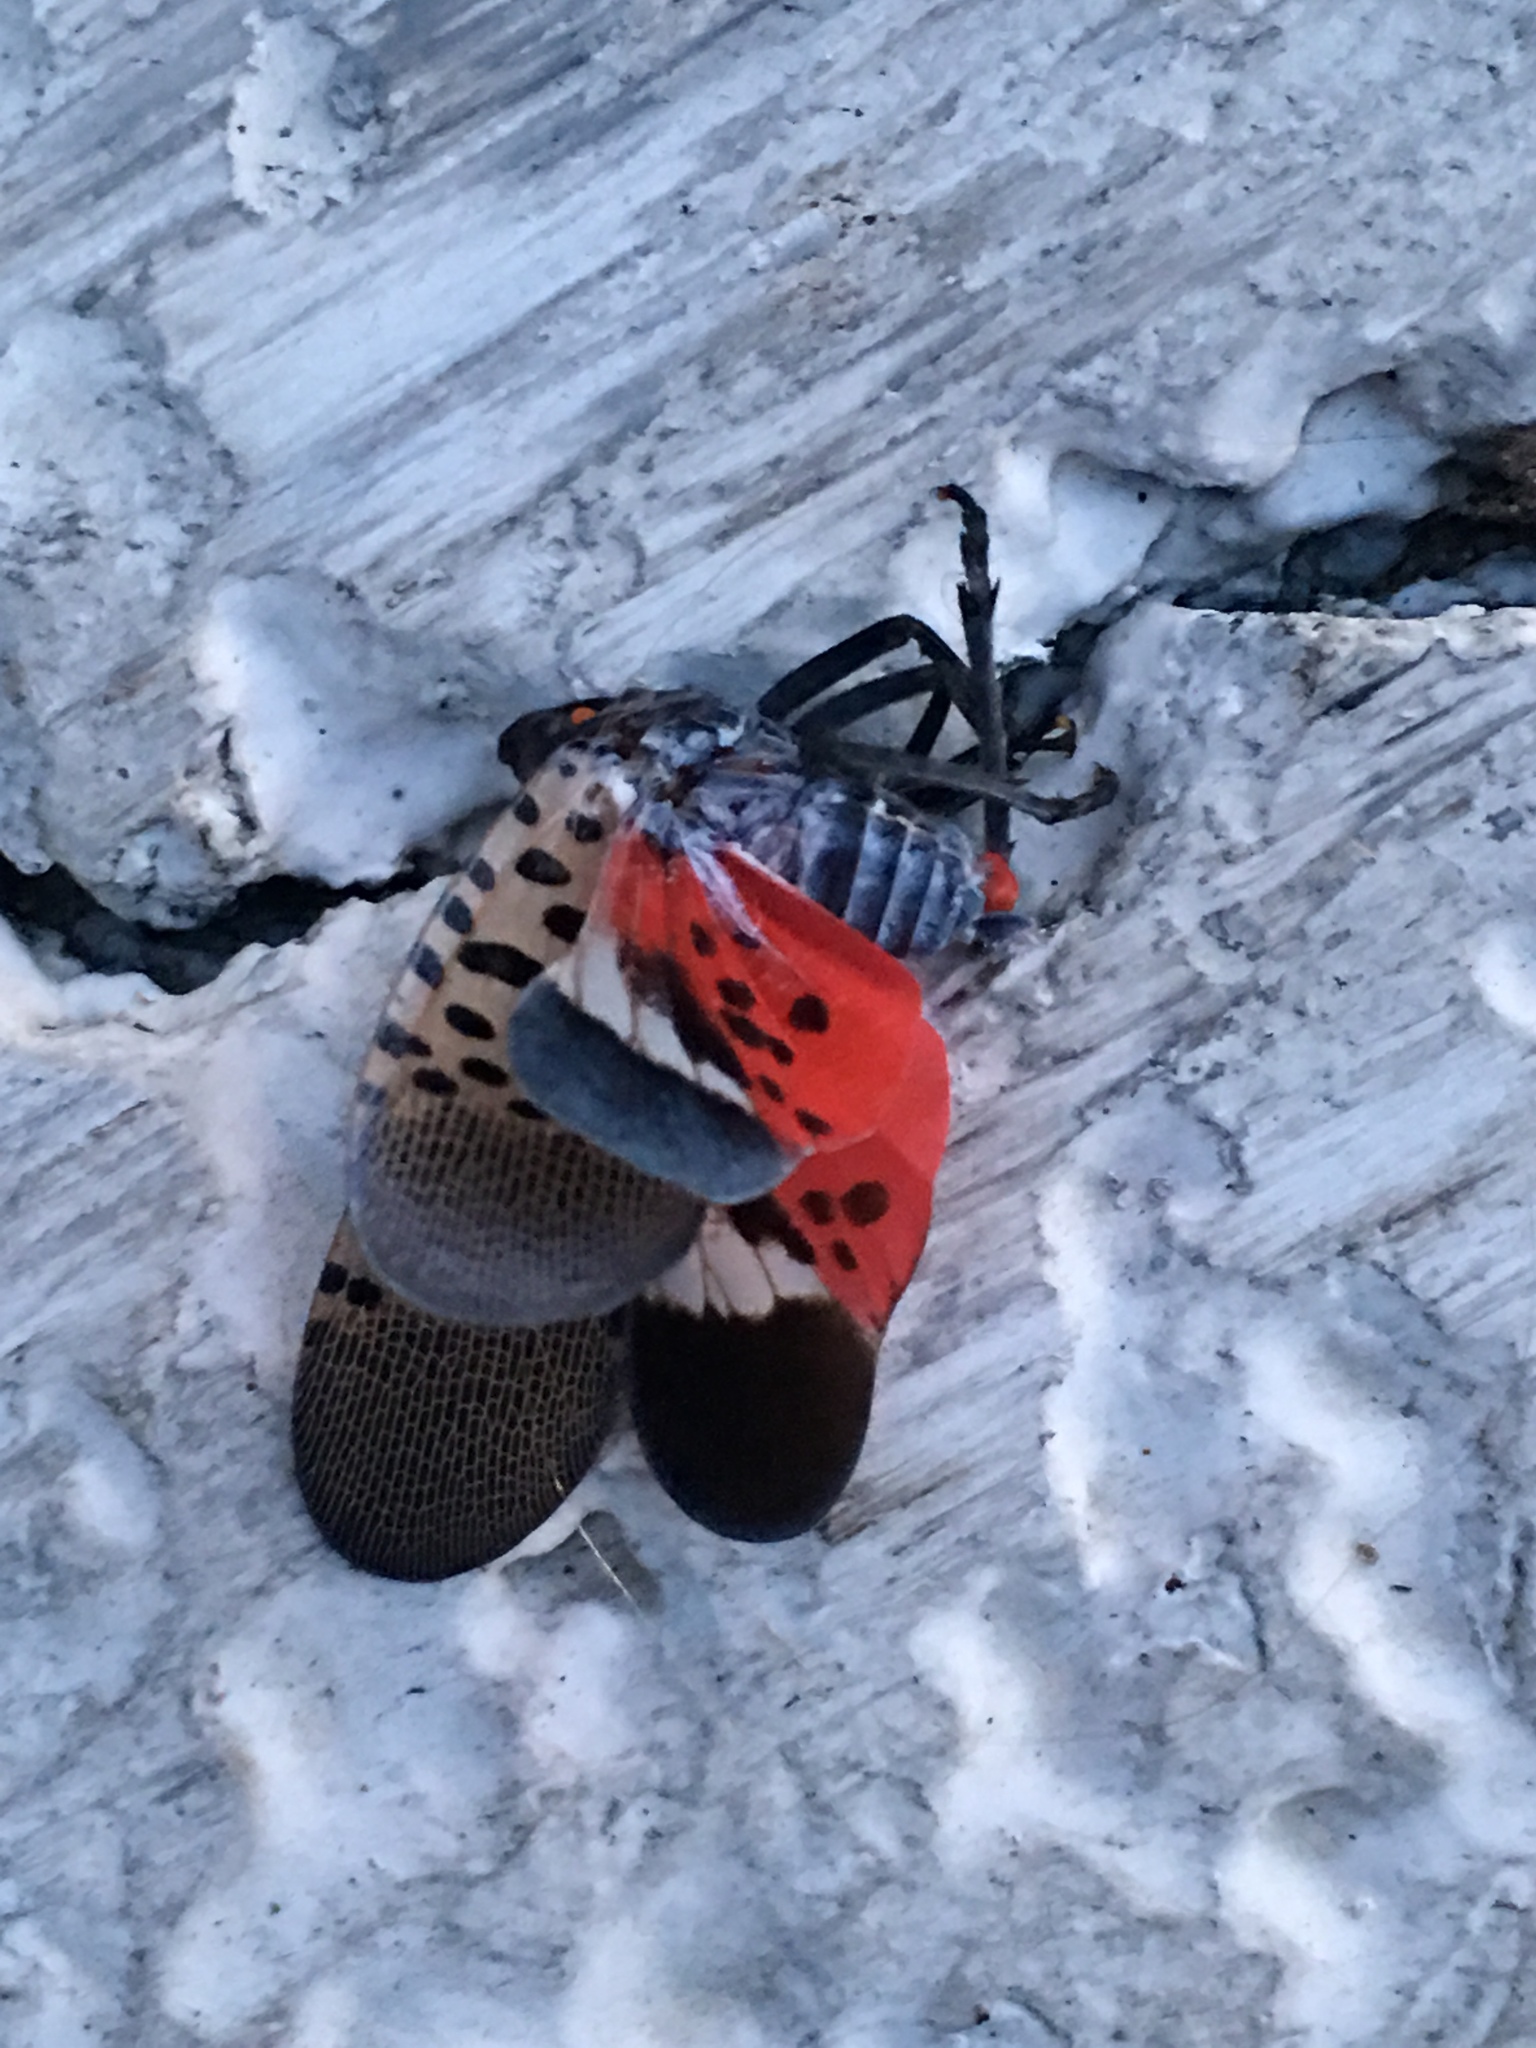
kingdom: Animalia
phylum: Arthropoda
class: Insecta
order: Hemiptera
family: Fulgoridae
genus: Lycorma
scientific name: Lycorma delicatula
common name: Spotted lanternfly
